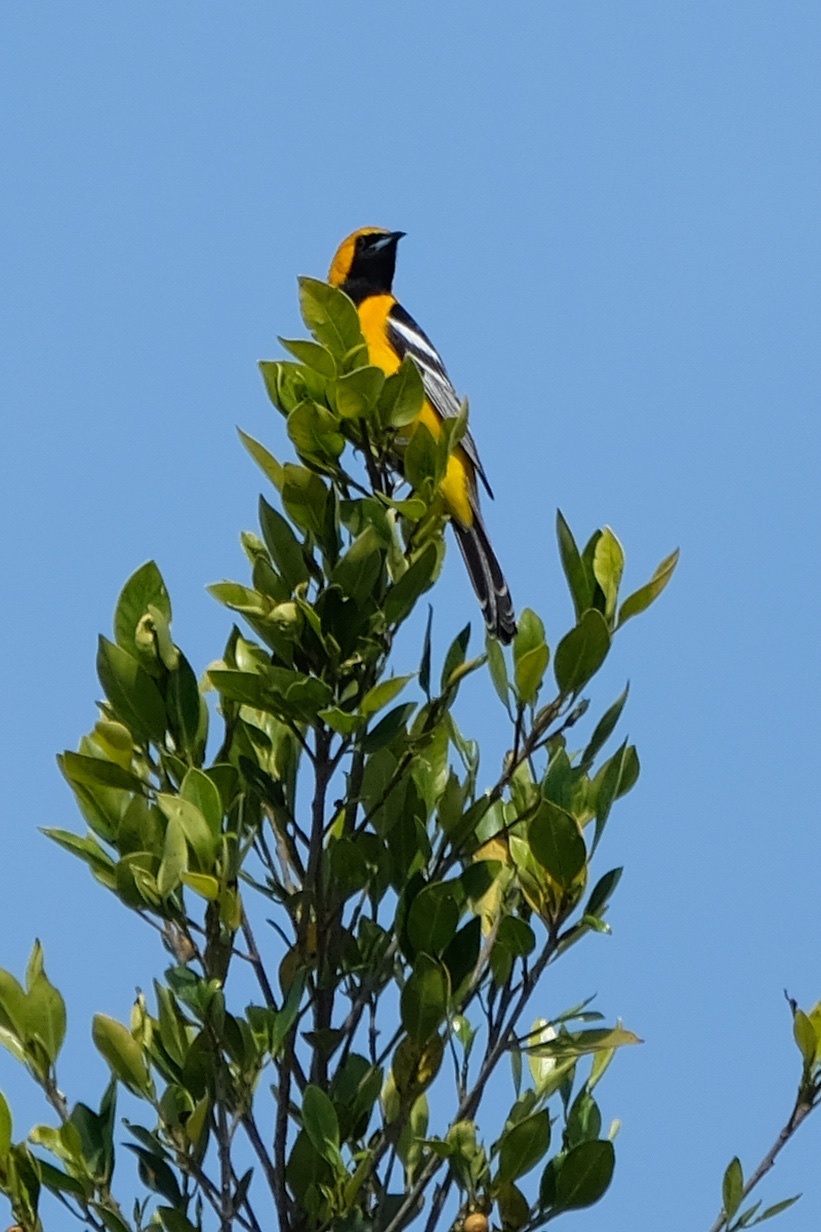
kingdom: Animalia
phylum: Chordata
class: Aves
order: Passeriformes
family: Icteridae
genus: Icterus
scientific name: Icterus cucullatus
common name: Hooded oriole
